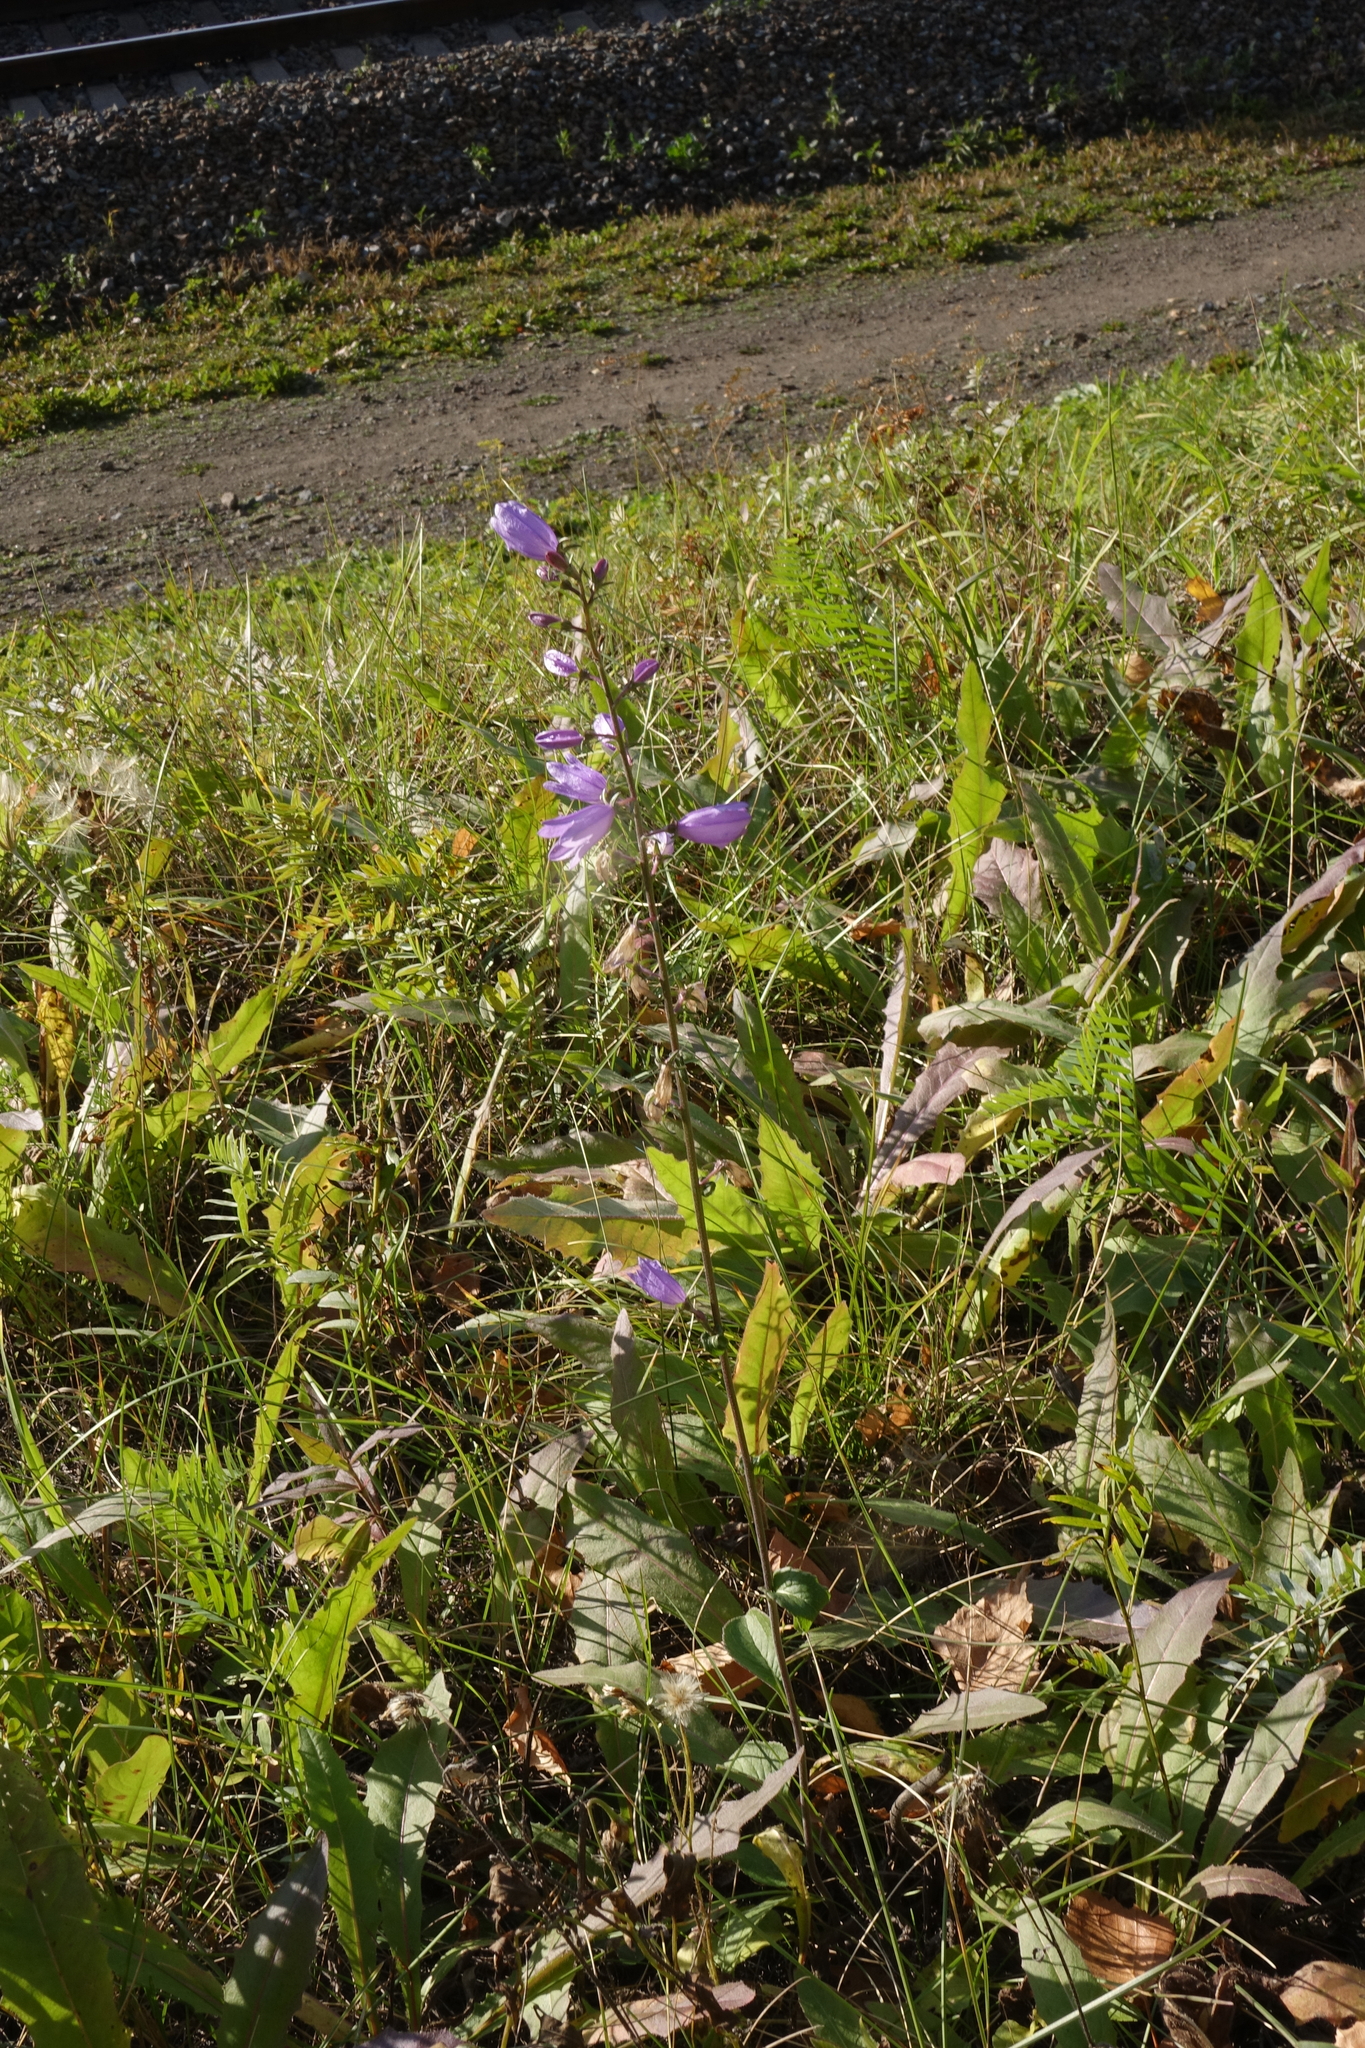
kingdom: Plantae
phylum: Tracheophyta
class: Magnoliopsida
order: Asterales
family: Campanulaceae
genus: Campanula
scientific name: Campanula rapunculoides
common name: Creeping bellflower
